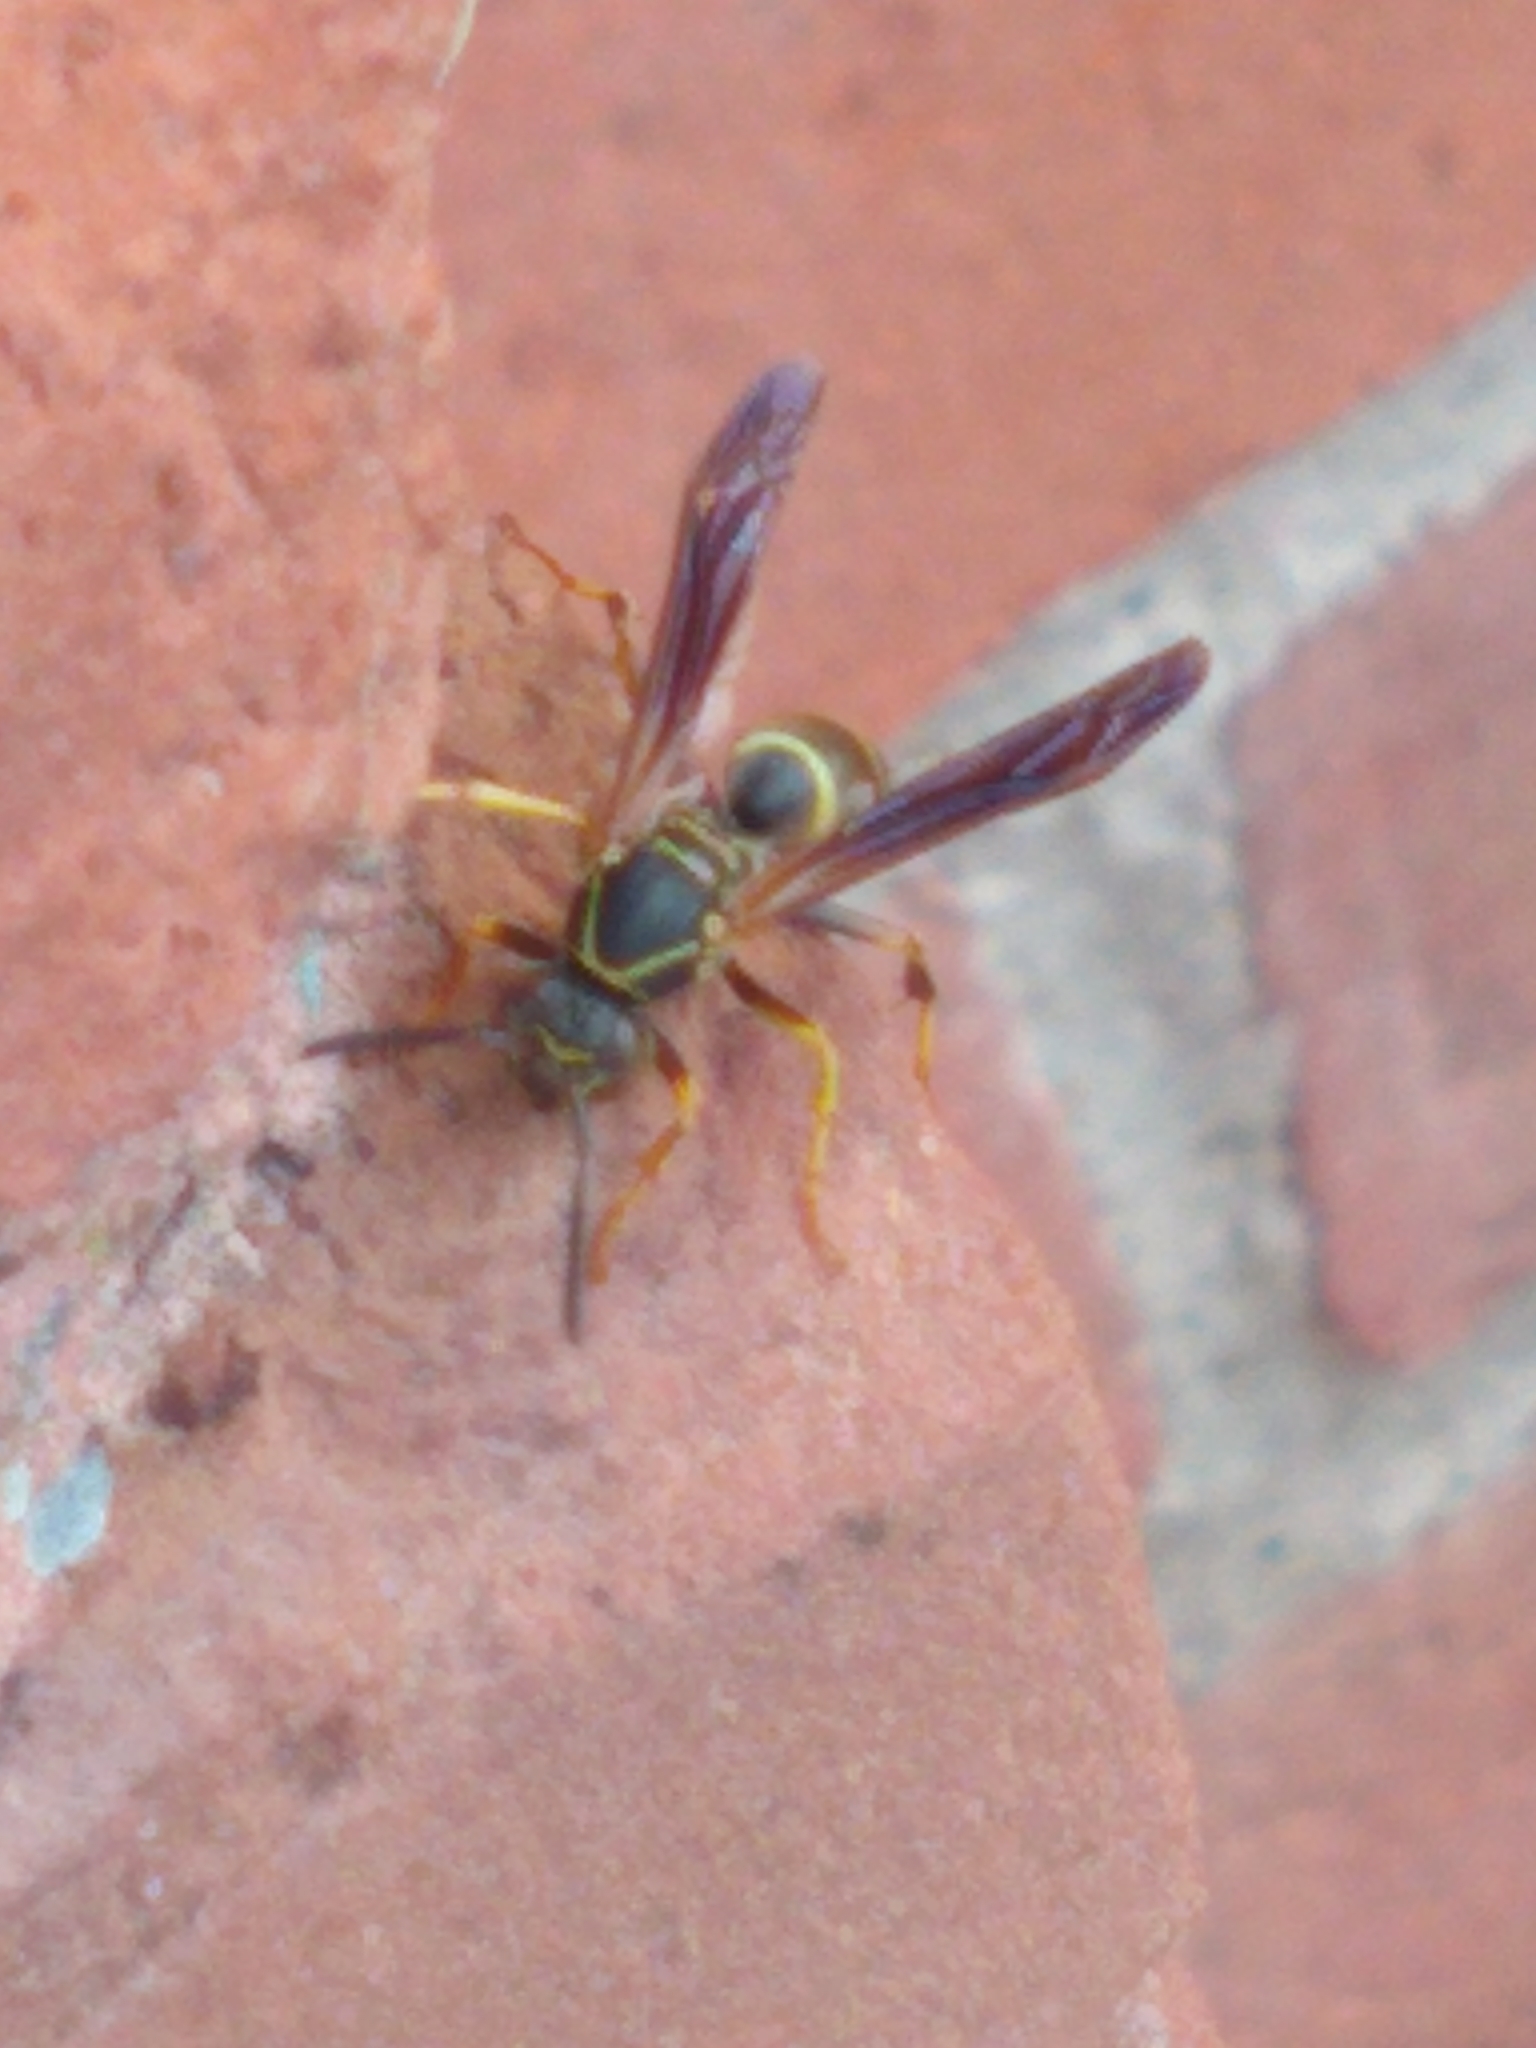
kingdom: Animalia
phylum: Arthropoda
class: Insecta
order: Hymenoptera
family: Eumenidae
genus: Polistes
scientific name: Polistes fuscatus
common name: Dark paper wasp
